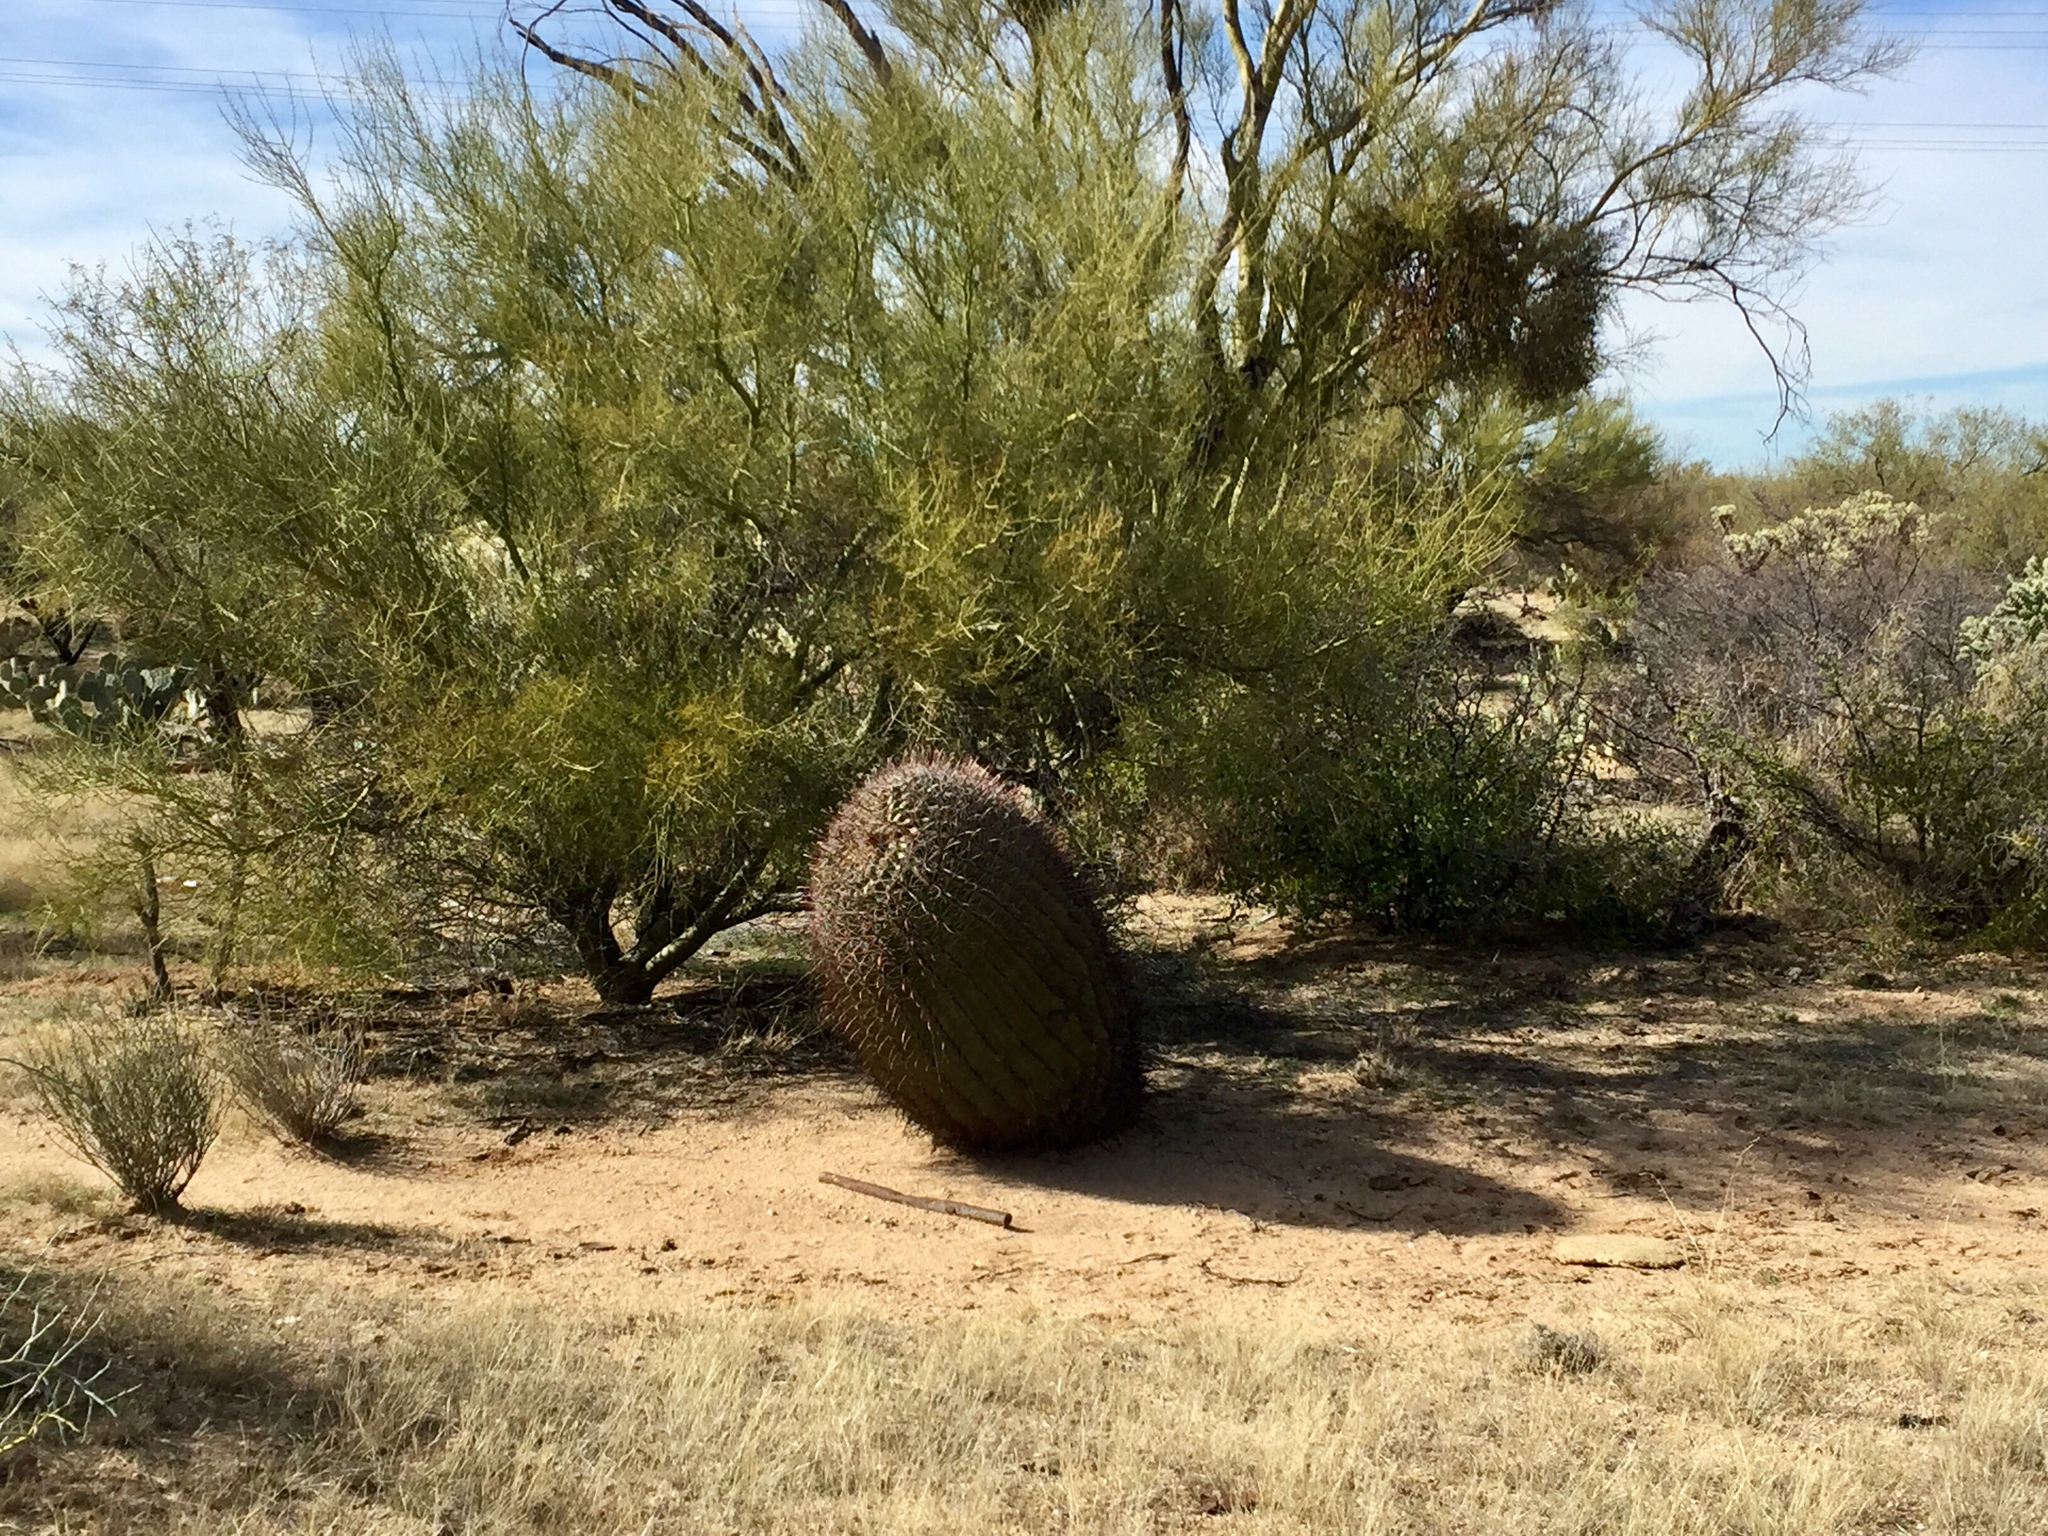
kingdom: Plantae
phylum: Tracheophyta
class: Magnoliopsida
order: Caryophyllales
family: Cactaceae
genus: Ferocactus
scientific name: Ferocactus wislizeni
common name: Candy barrel cactus
